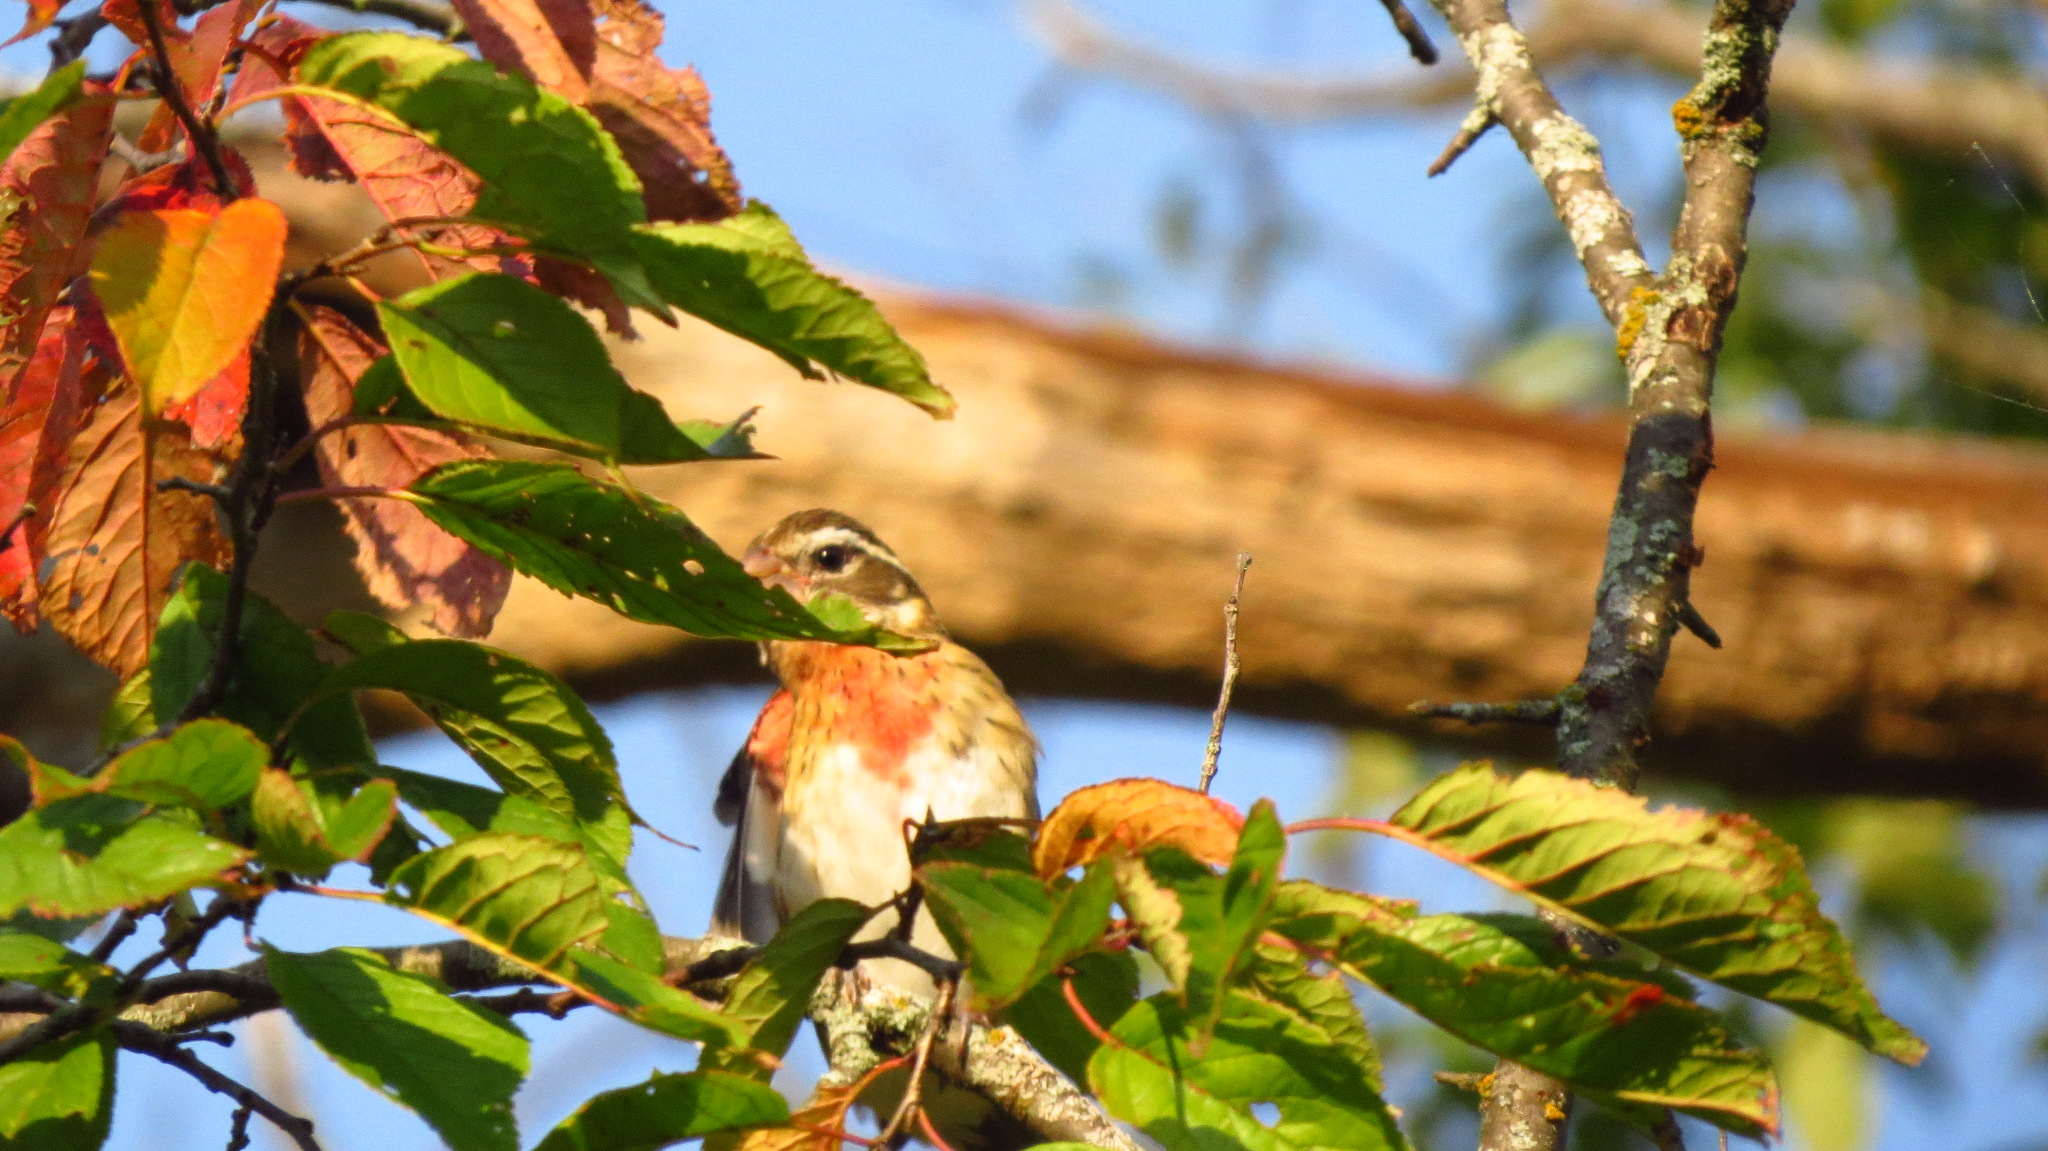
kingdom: Animalia
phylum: Chordata
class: Aves
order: Passeriformes
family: Cardinalidae
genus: Pheucticus
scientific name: Pheucticus ludovicianus
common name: Rose-breasted grosbeak
